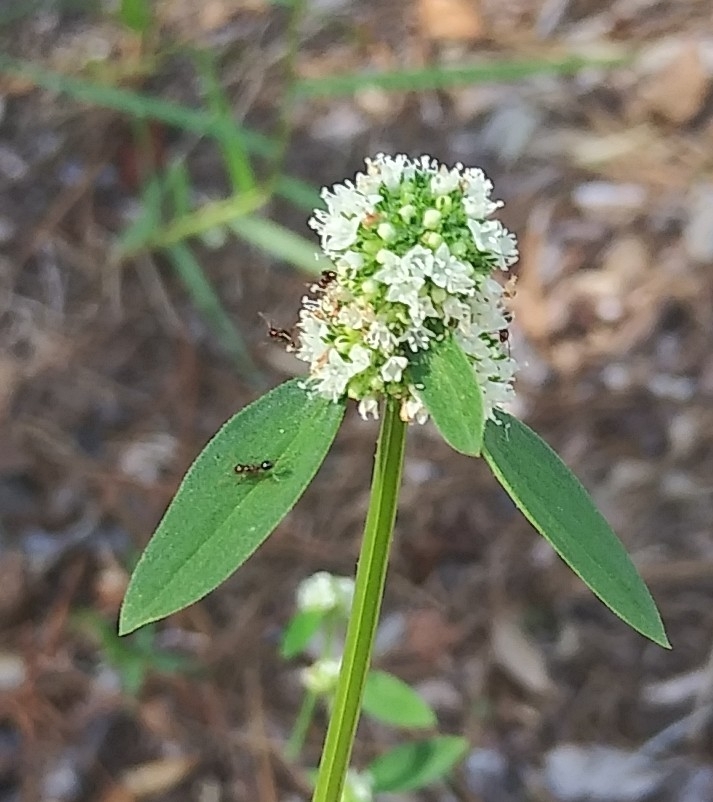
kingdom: Plantae
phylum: Tracheophyta
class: Magnoliopsida
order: Gentianales
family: Rubiaceae
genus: Spermacoce
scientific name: Spermacoce verticillata
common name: Shrubby false buttonweed
